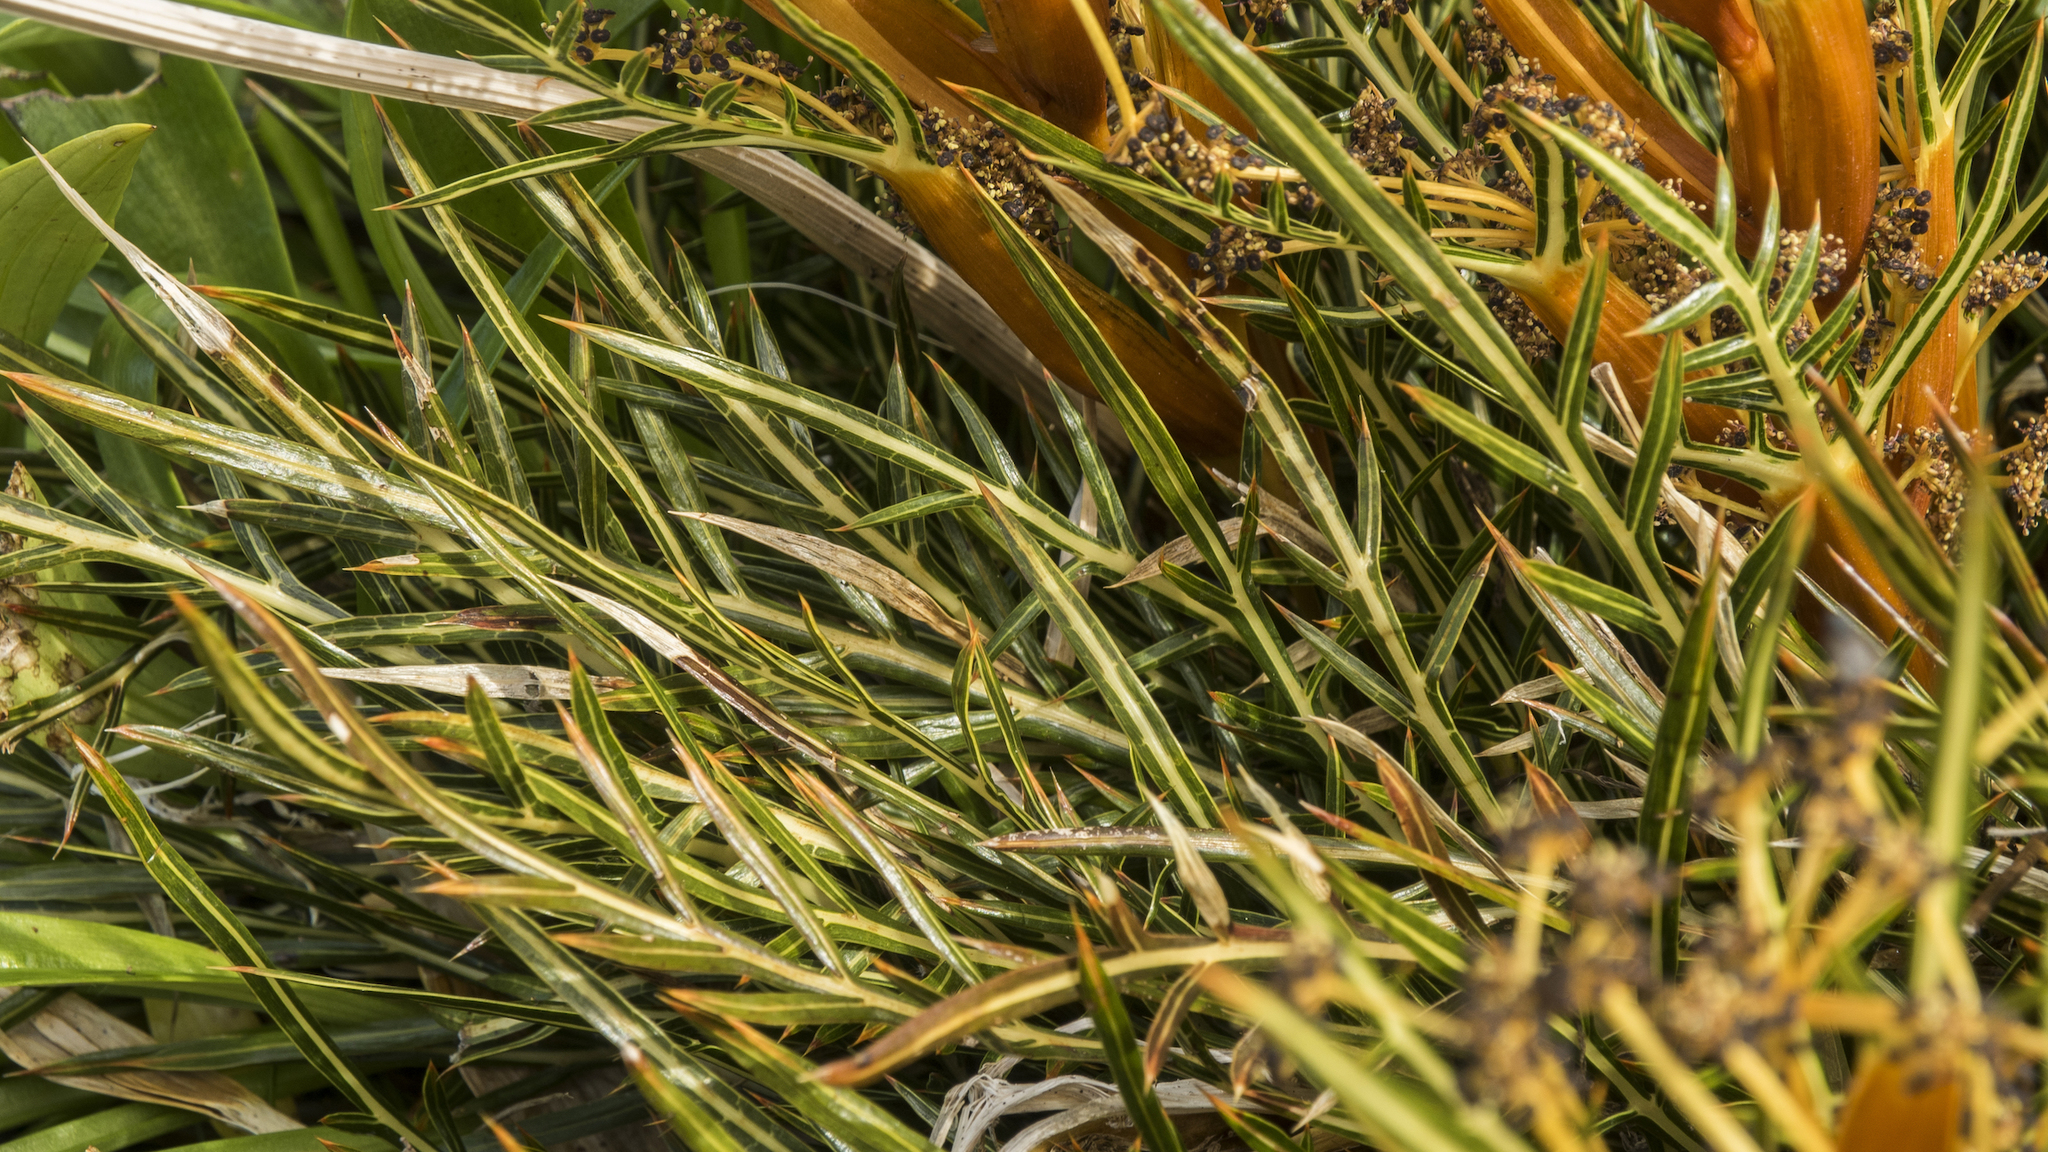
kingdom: Plantae
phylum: Tracheophyta
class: Magnoliopsida
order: Apiales
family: Apiaceae
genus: Aciphylla
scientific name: Aciphylla pinnatifida
